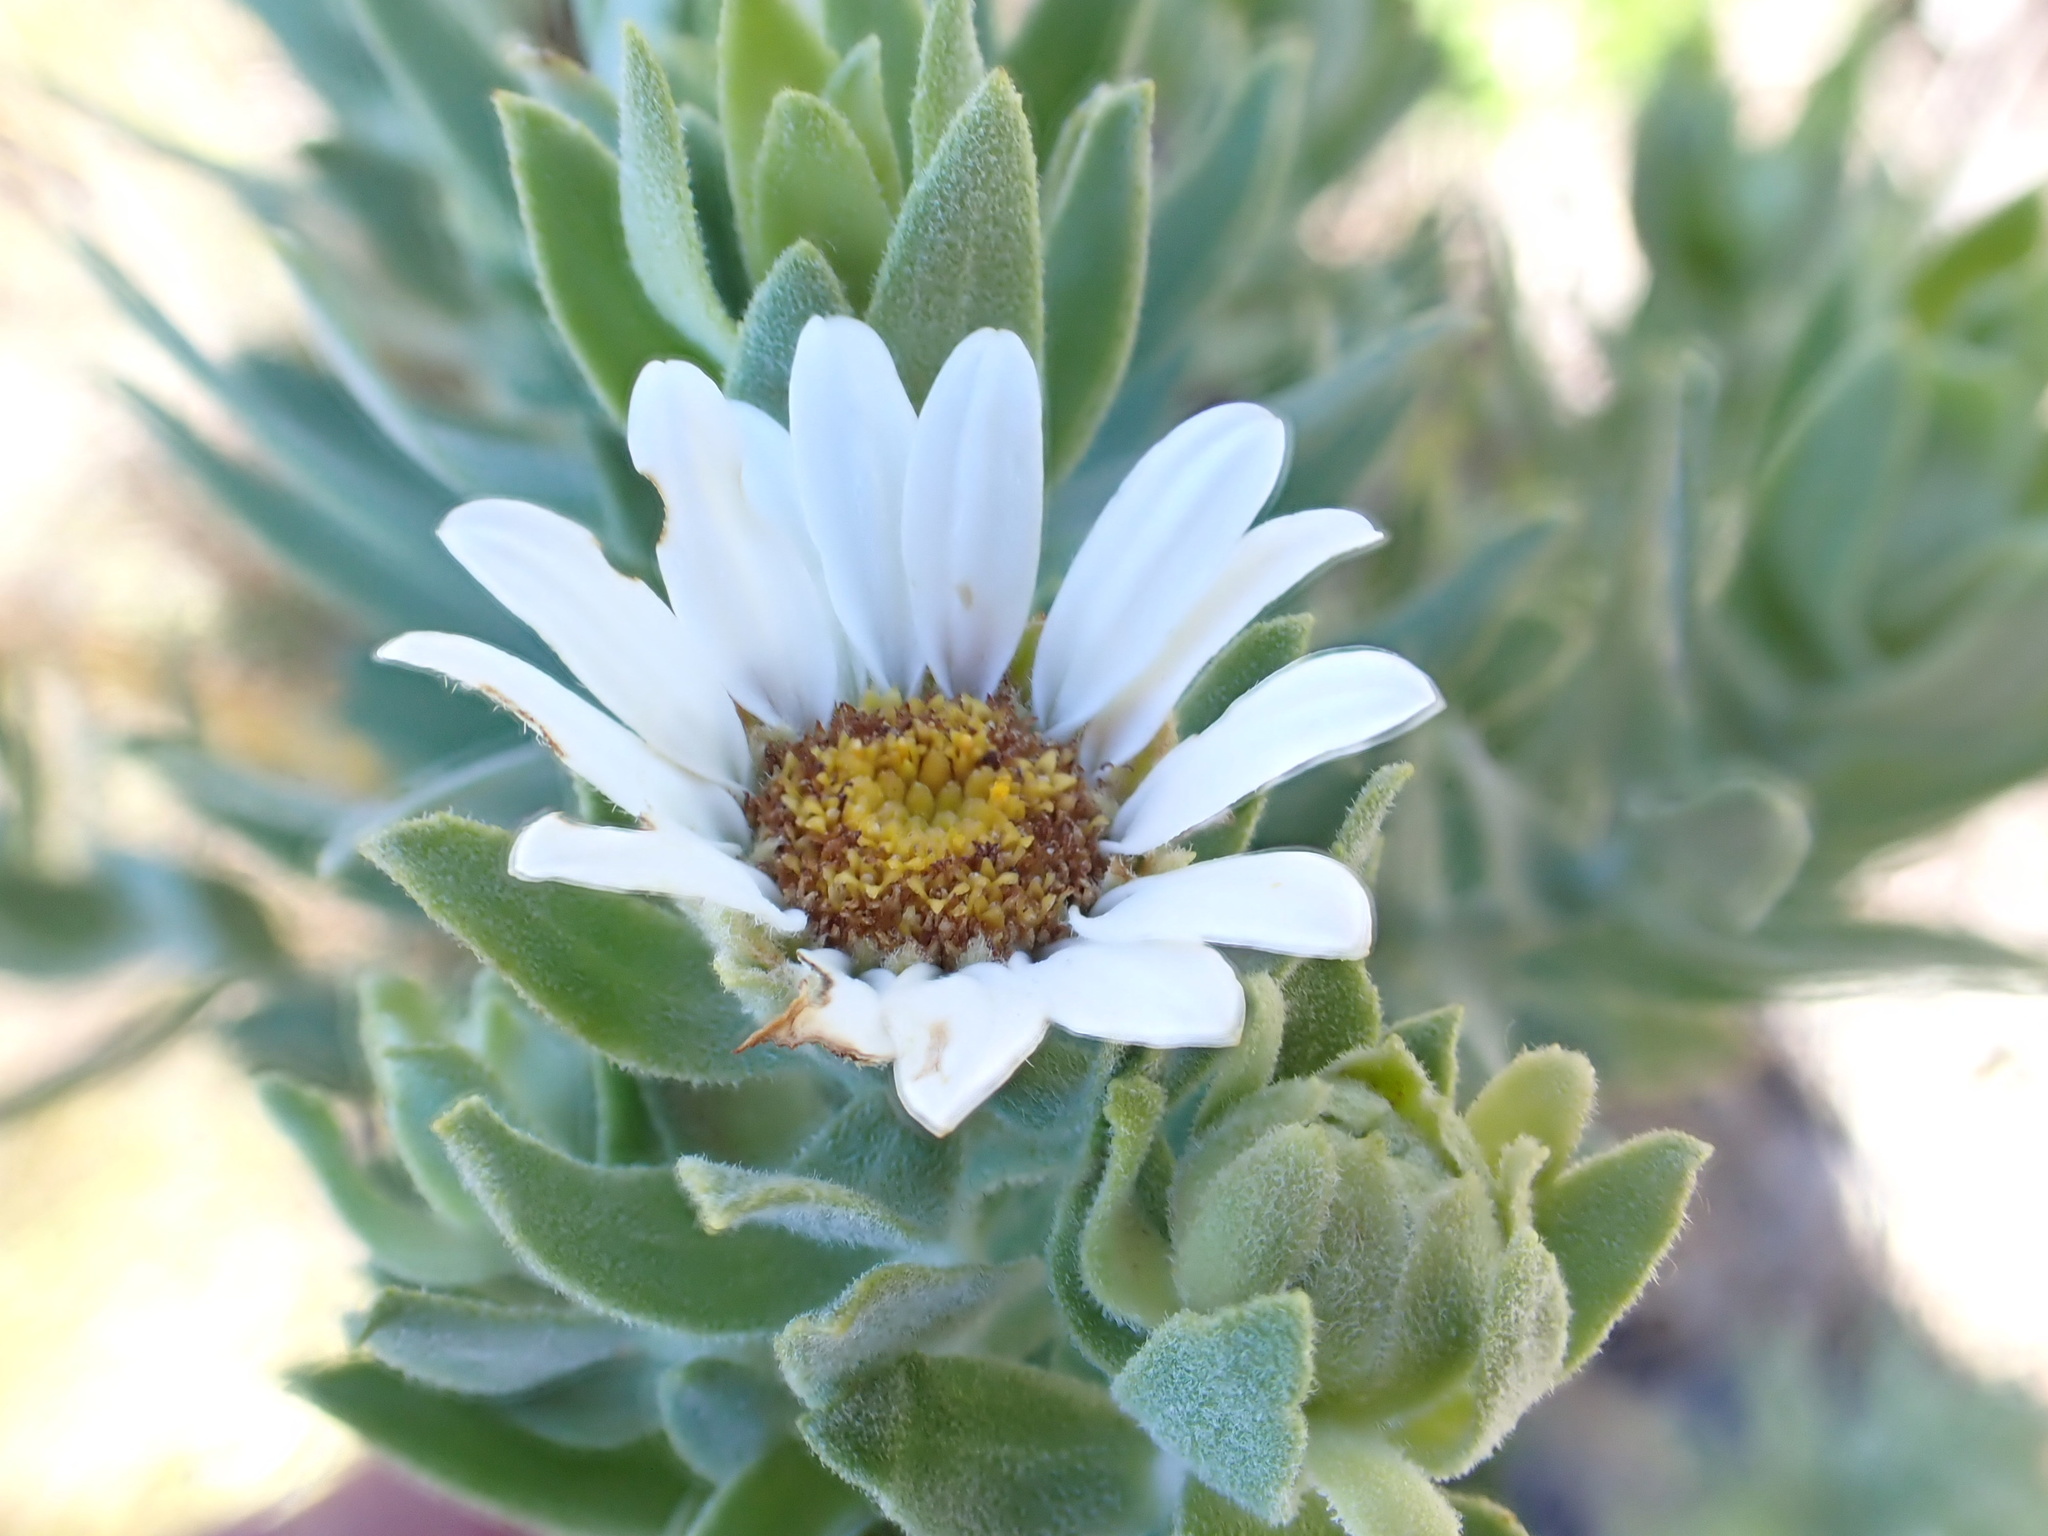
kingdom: Plantae
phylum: Tracheophyta
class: Magnoliopsida
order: Asterales
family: Asteraceae
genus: Osmitopsis
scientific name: Osmitopsis asteriscoides
